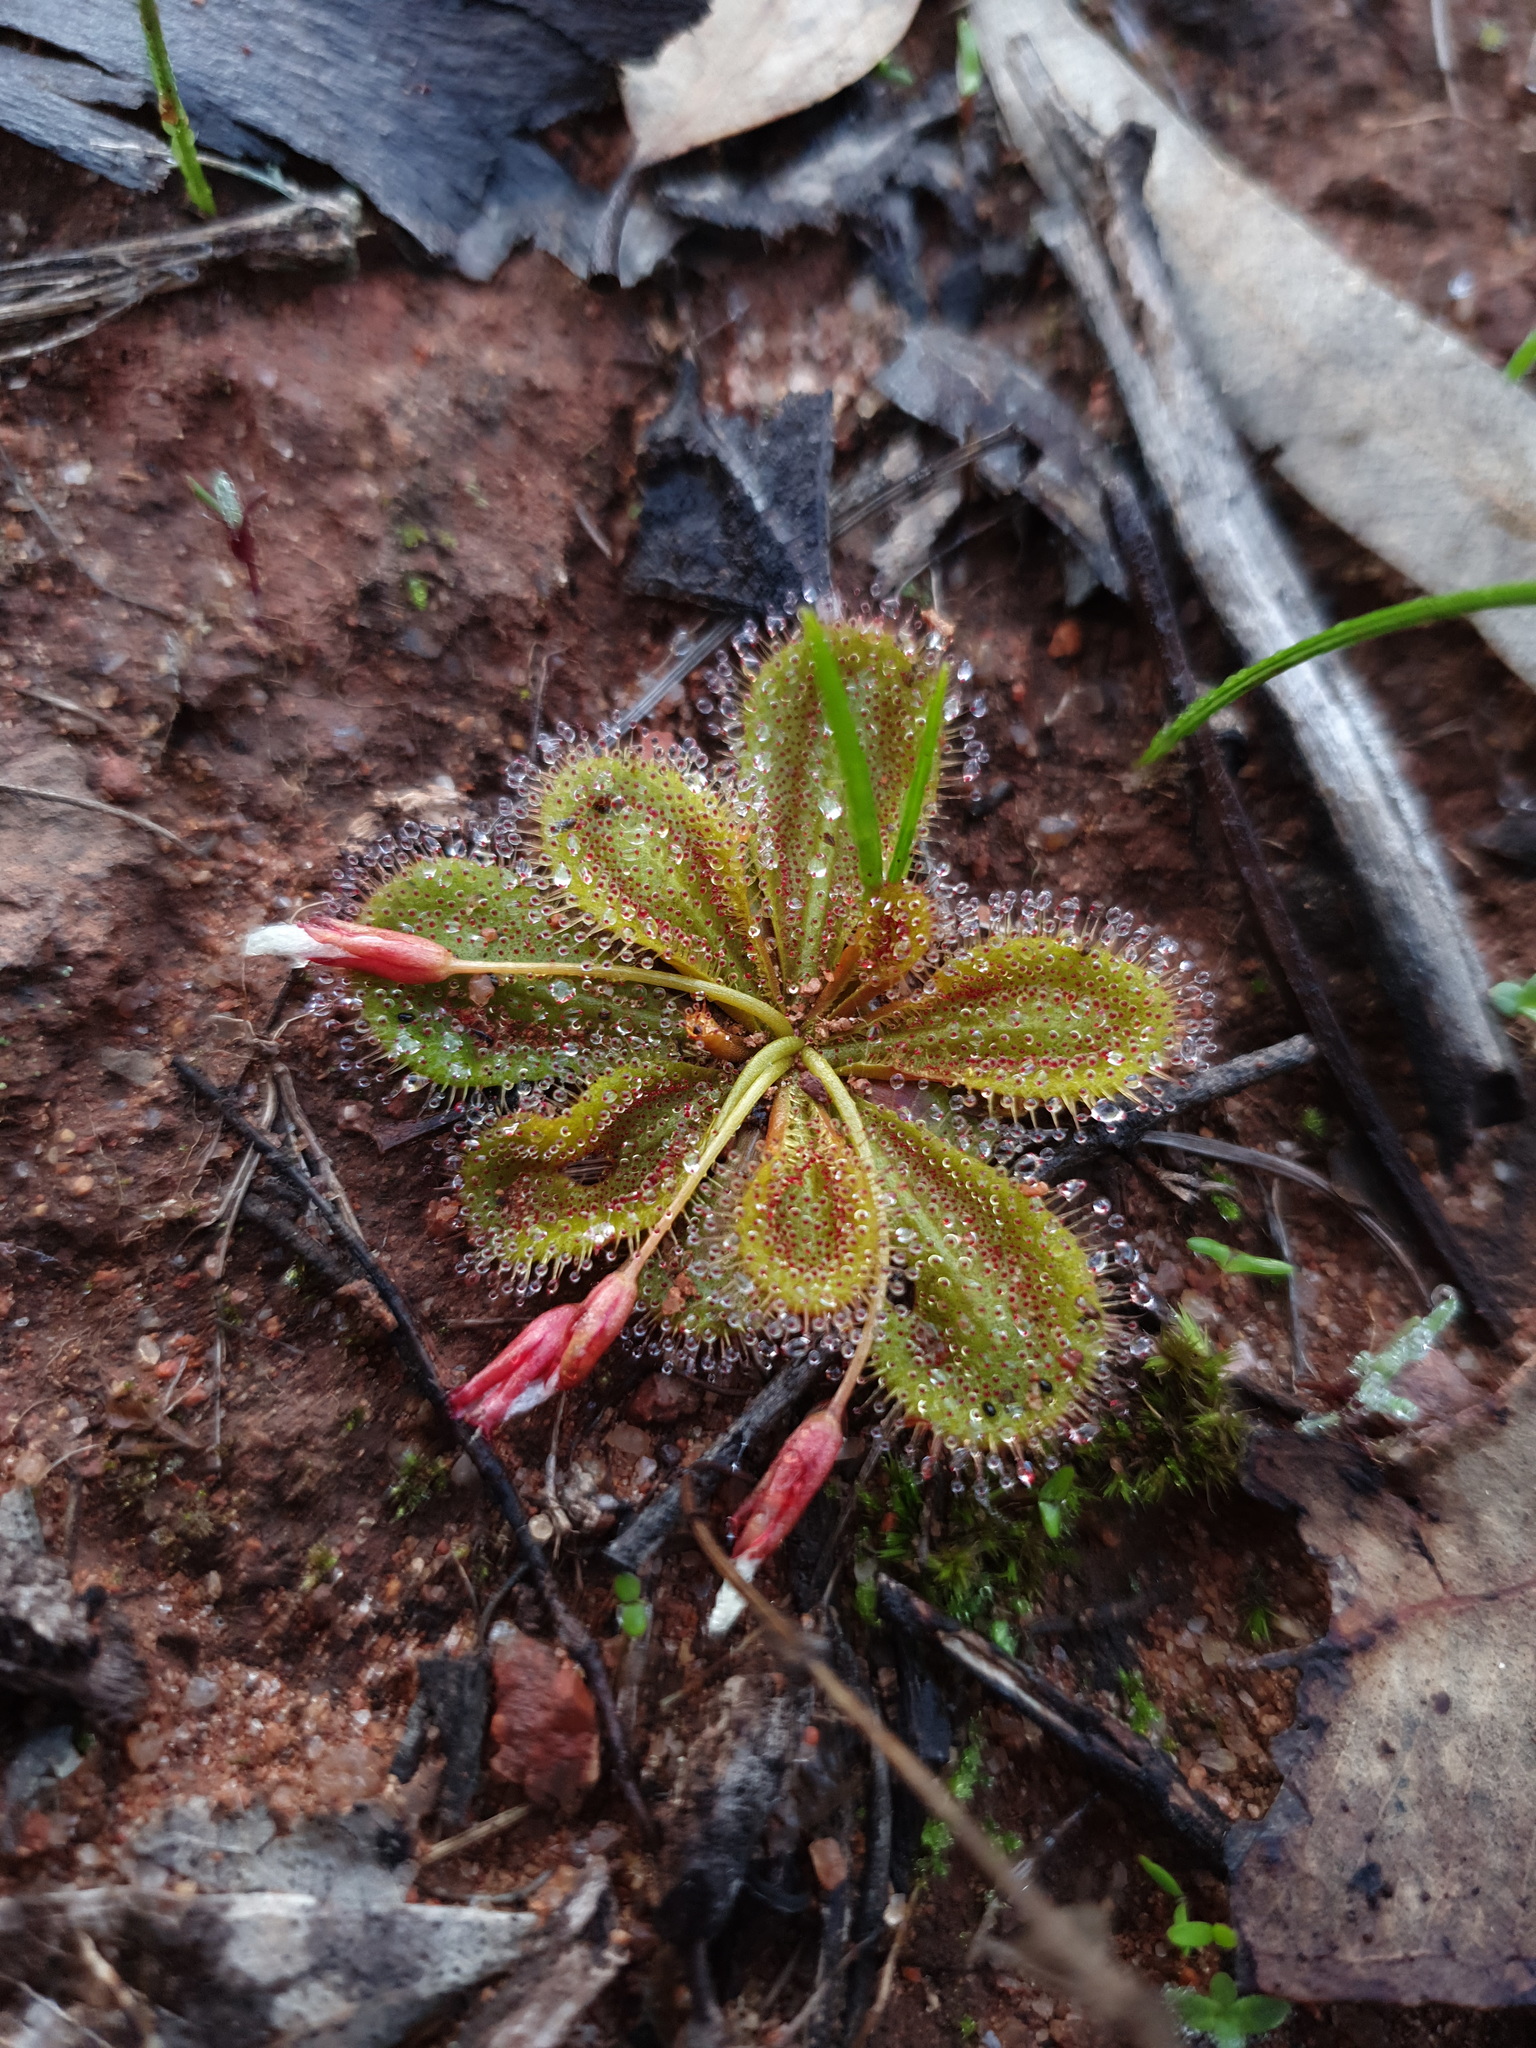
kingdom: Plantae
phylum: Tracheophyta
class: Magnoliopsida
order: Caryophyllales
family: Droseraceae
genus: Drosera
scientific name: Drosera bulbosa
